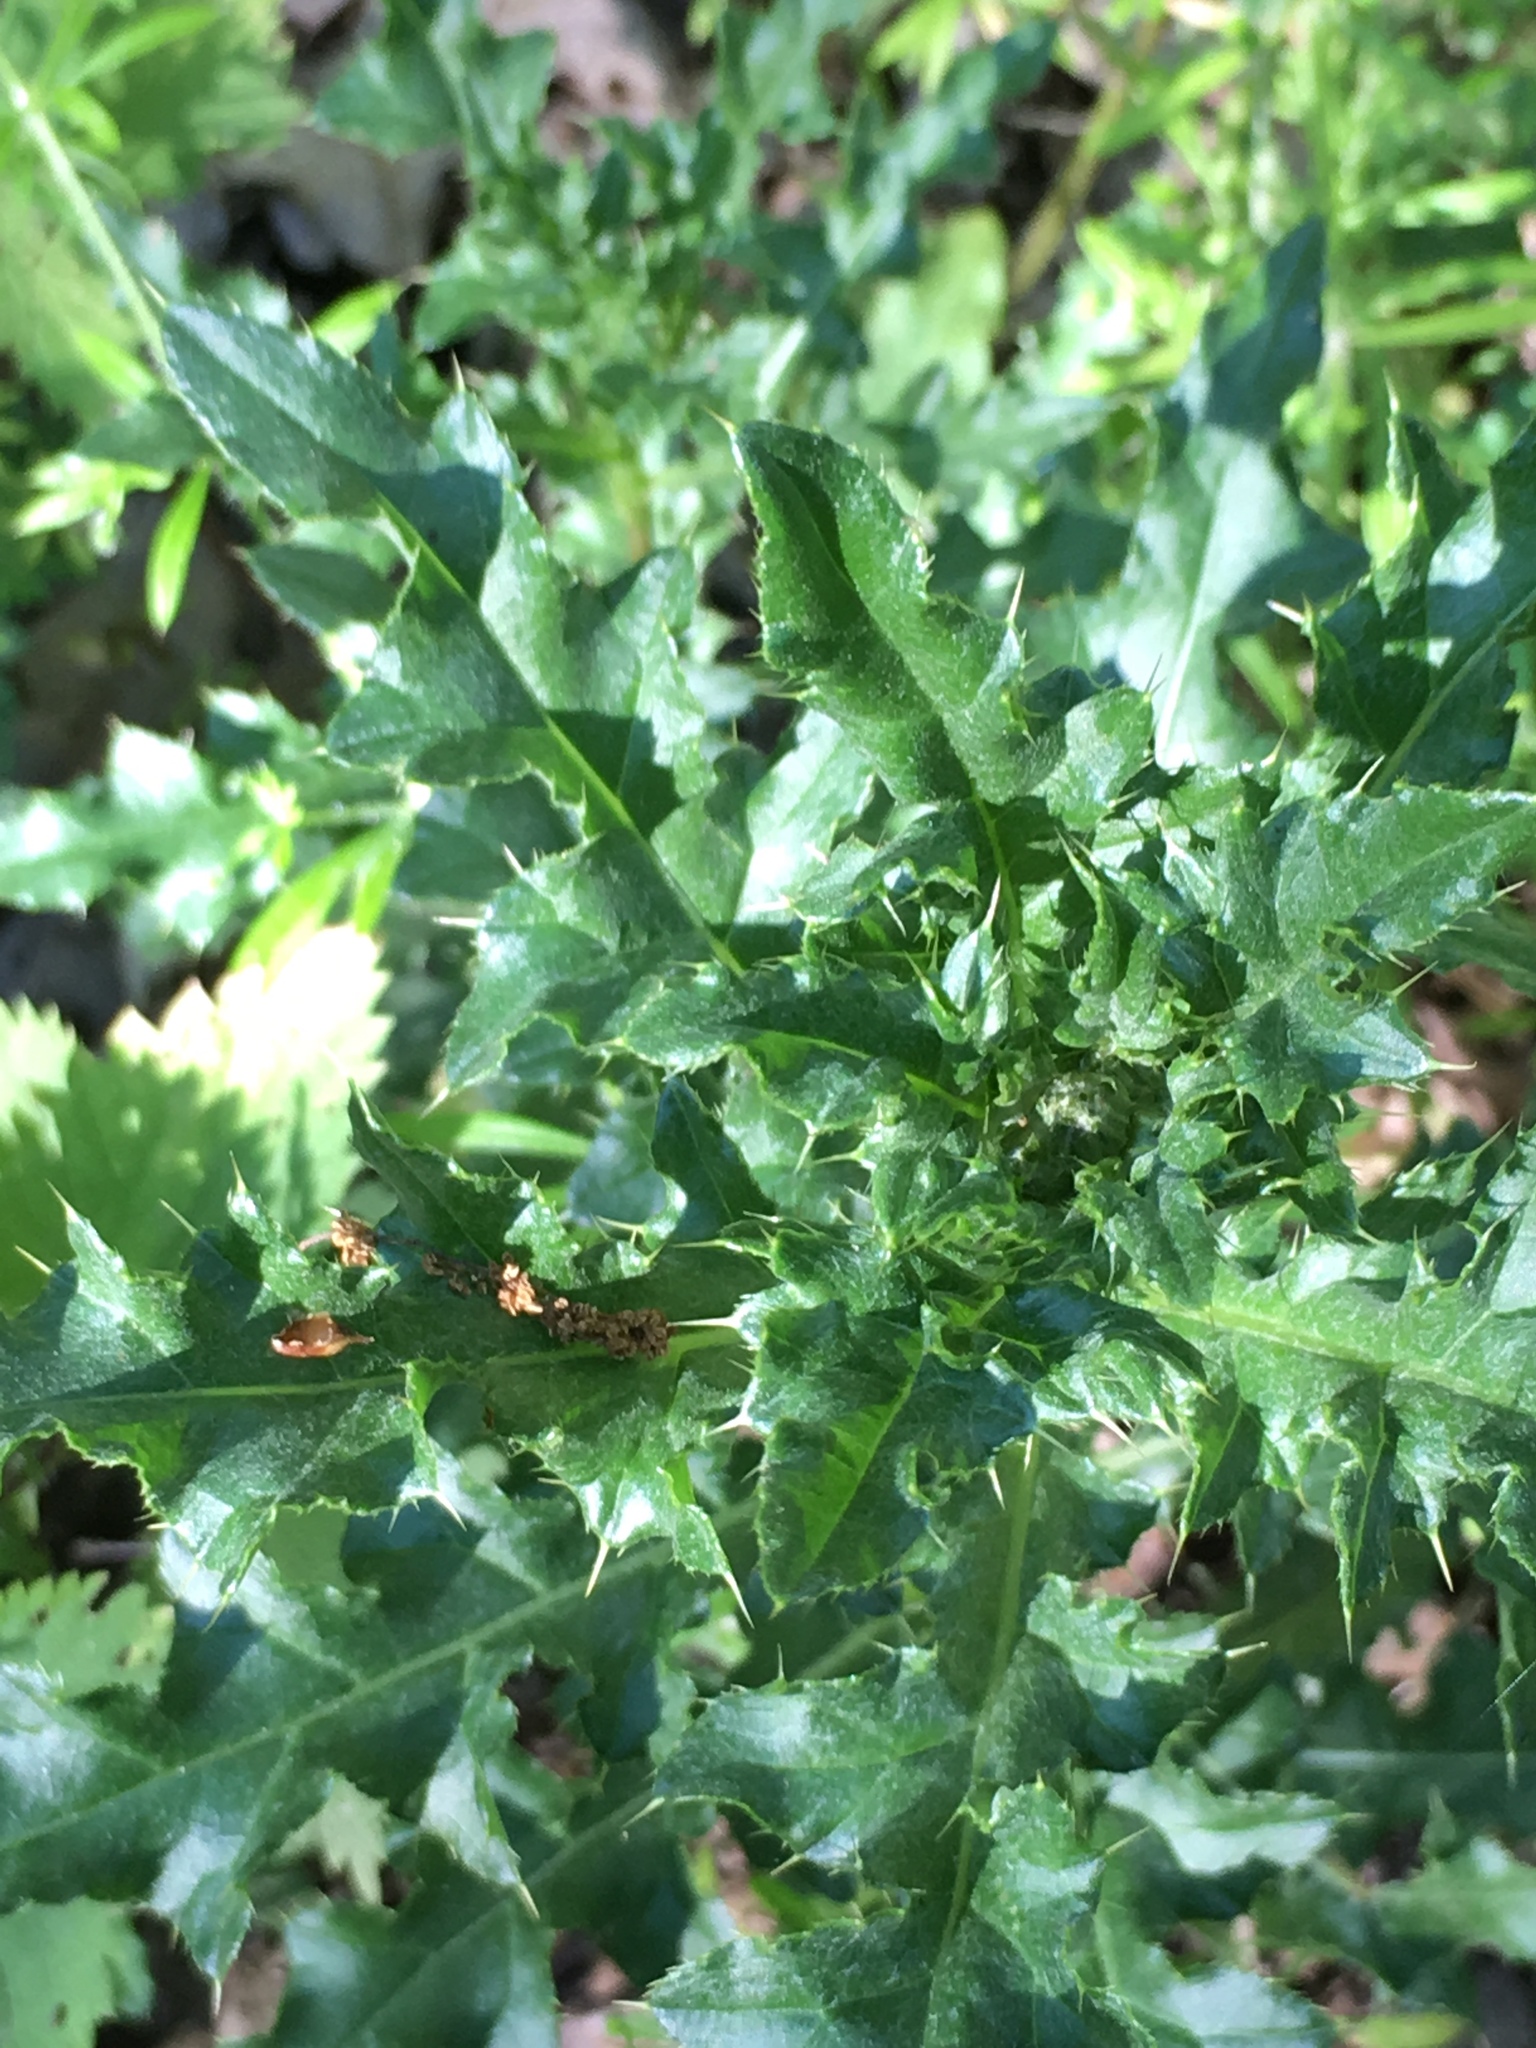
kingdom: Plantae
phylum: Tracheophyta
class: Magnoliopsida
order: Asterales
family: Asteraceae
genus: Cirsium
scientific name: Cirsium arvense
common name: Creeping thistle
